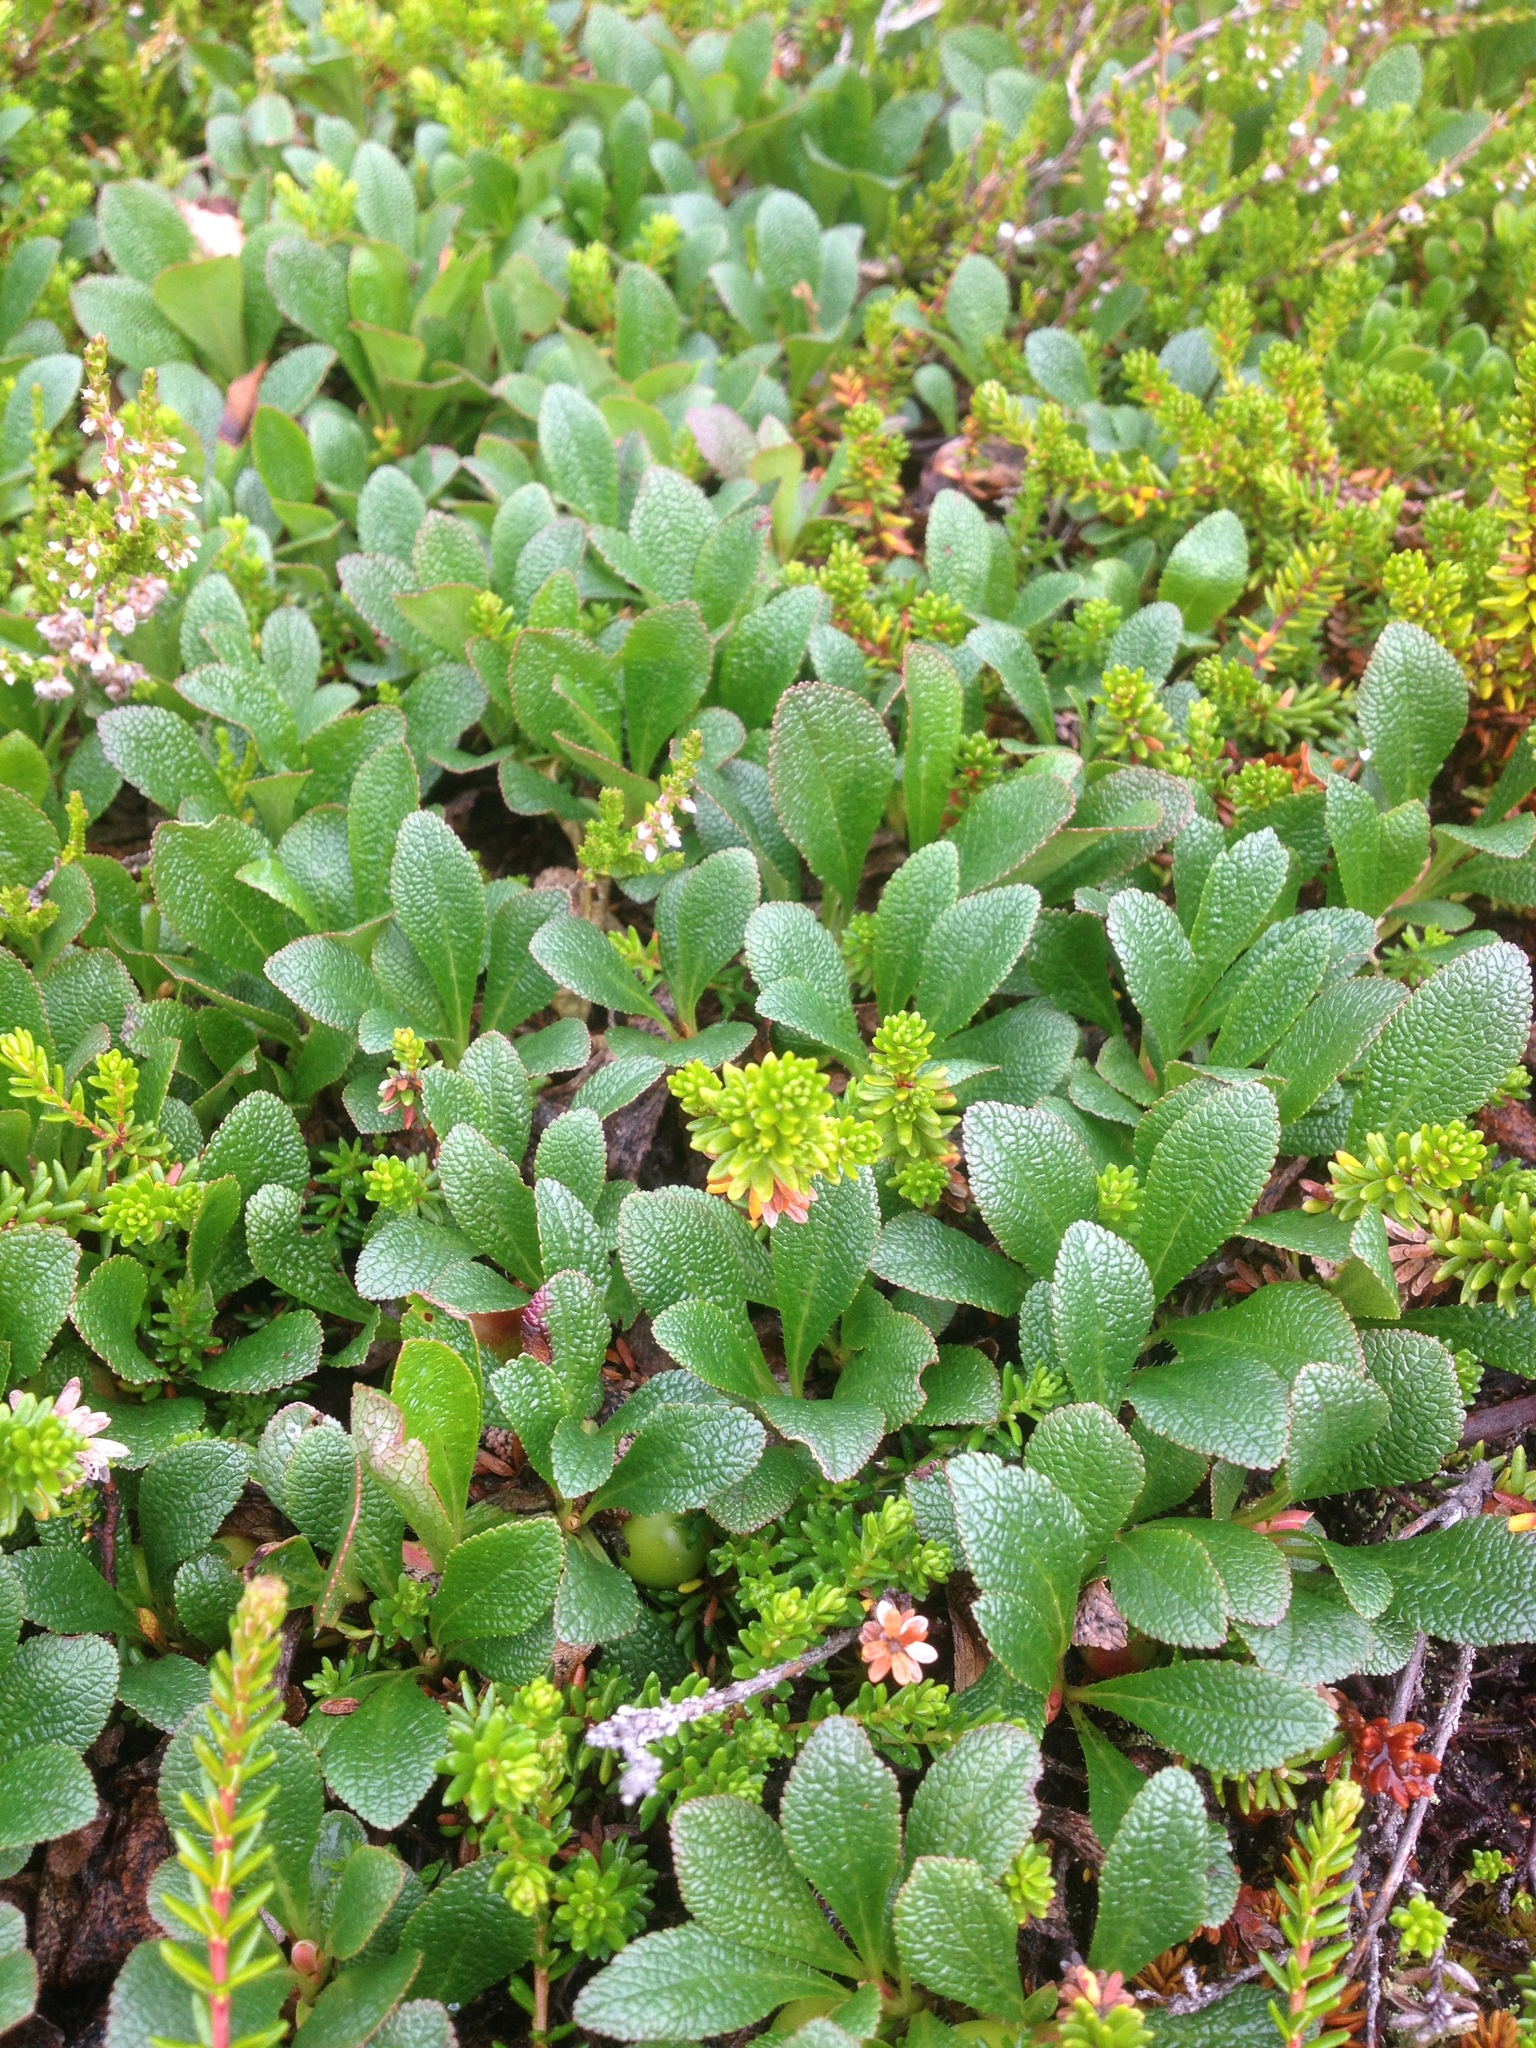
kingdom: Plantae
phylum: Tracheophyta
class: Magnoliopsida
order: Ericales
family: Ericaceae
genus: Arctostaphylos
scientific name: Arctostaphylos alpinus
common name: Alpine bearberry
